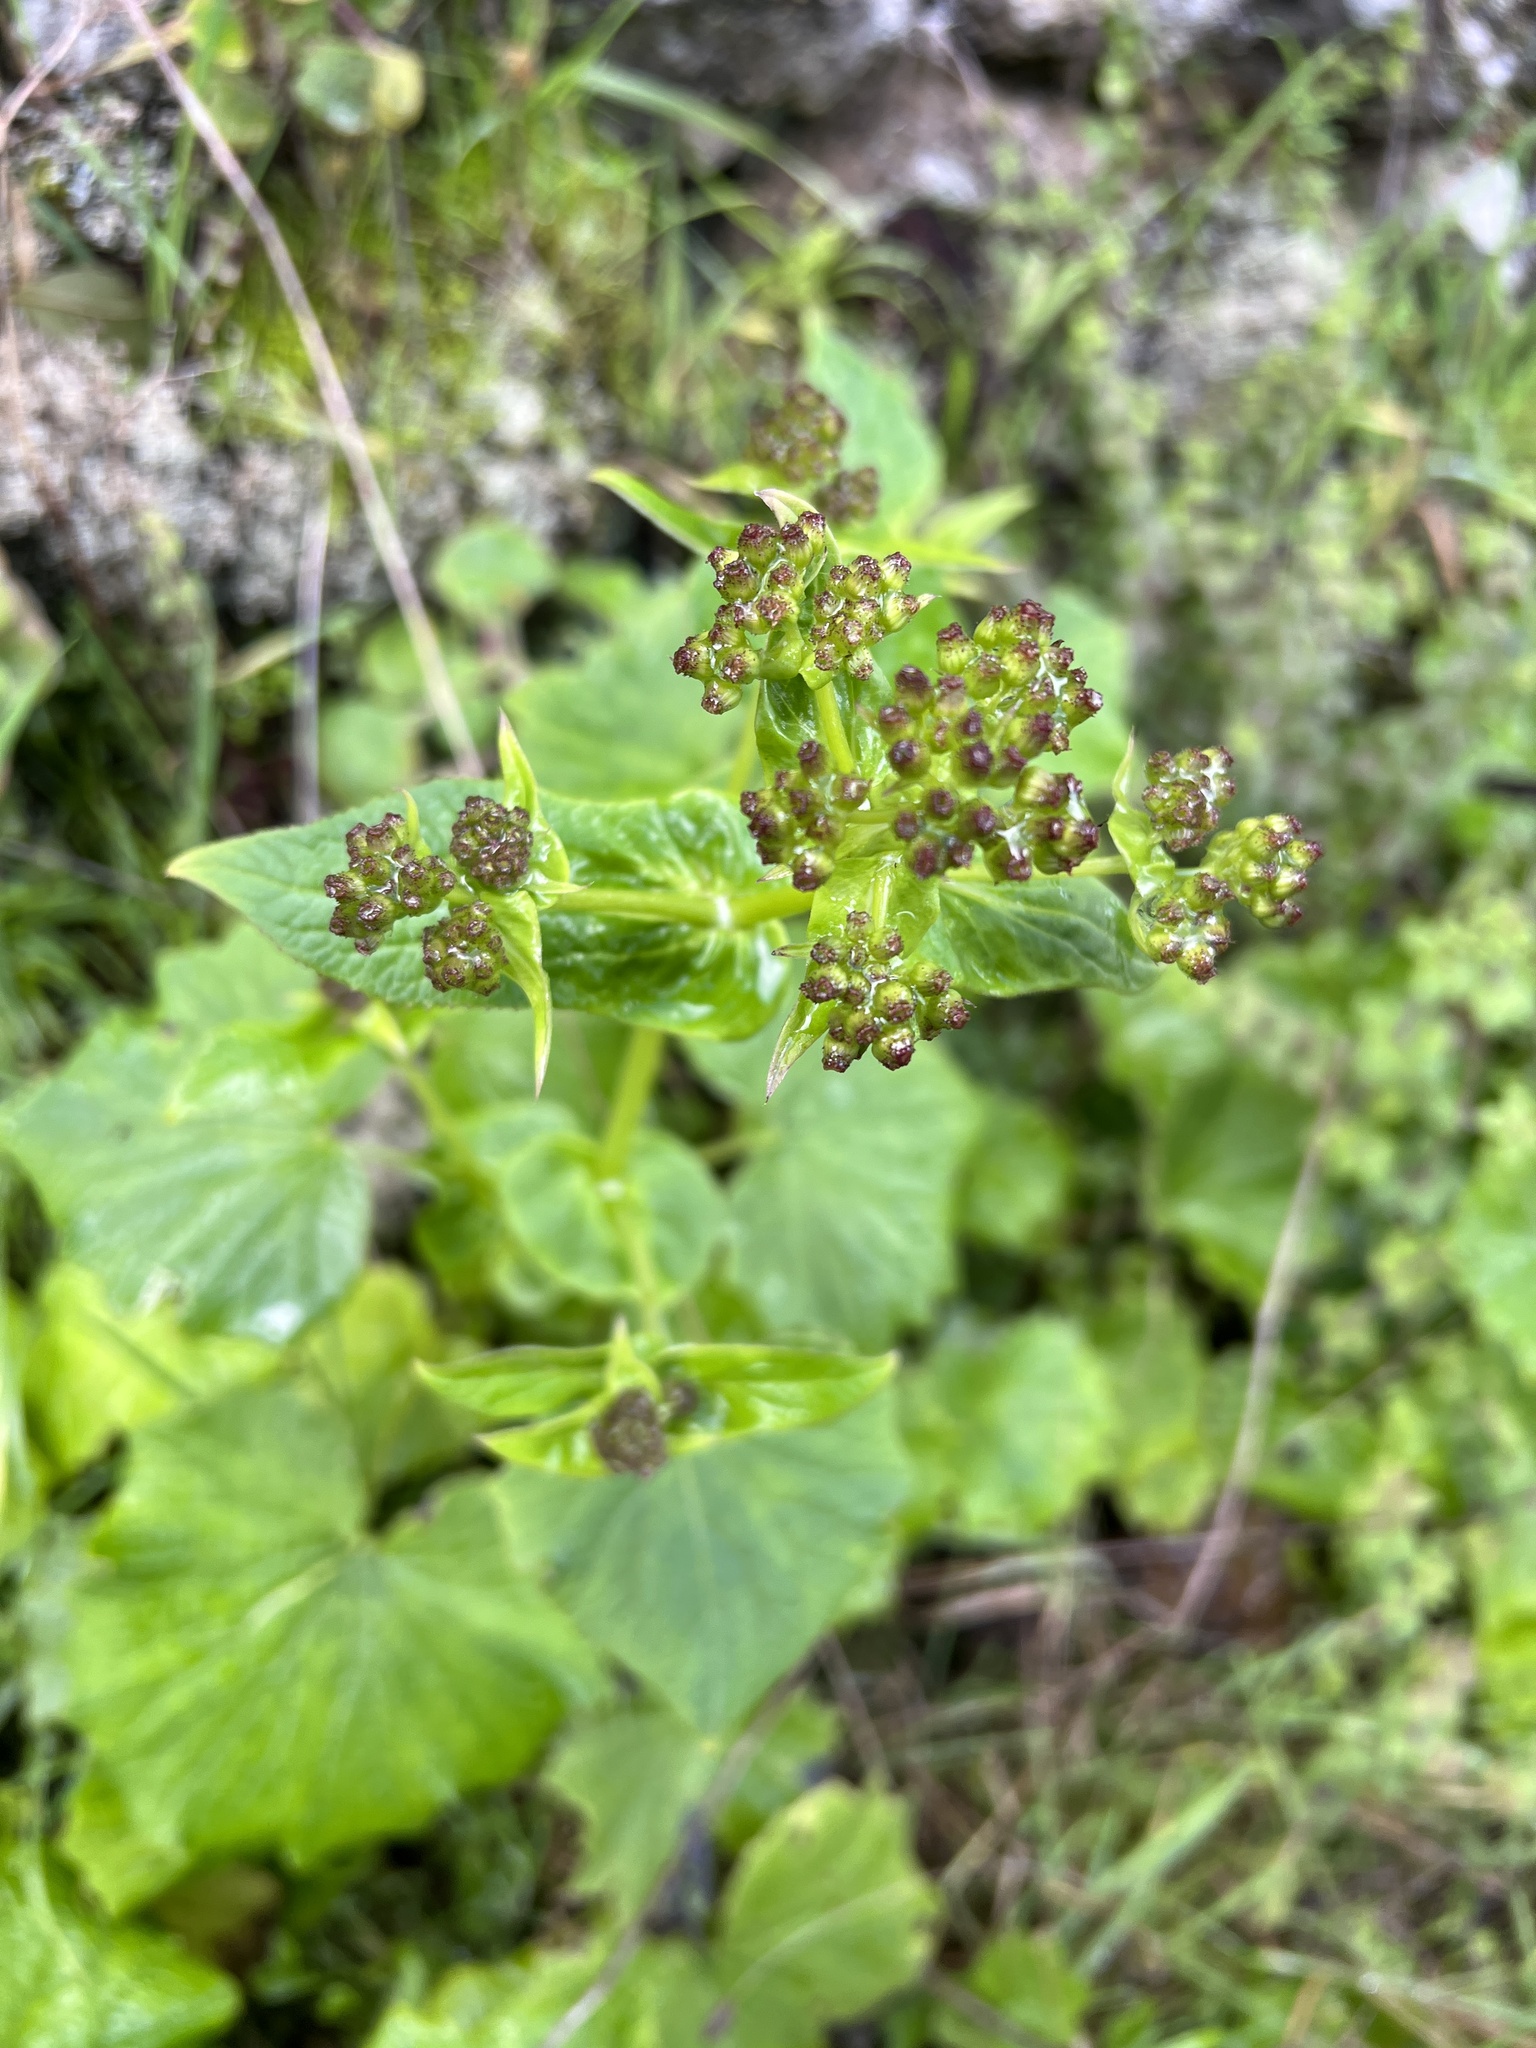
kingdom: Plantae
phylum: Tracheophyta
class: Magnoliopsida
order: Asterales
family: Asteraceae
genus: Pericallis
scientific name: Pericallis murrayi
